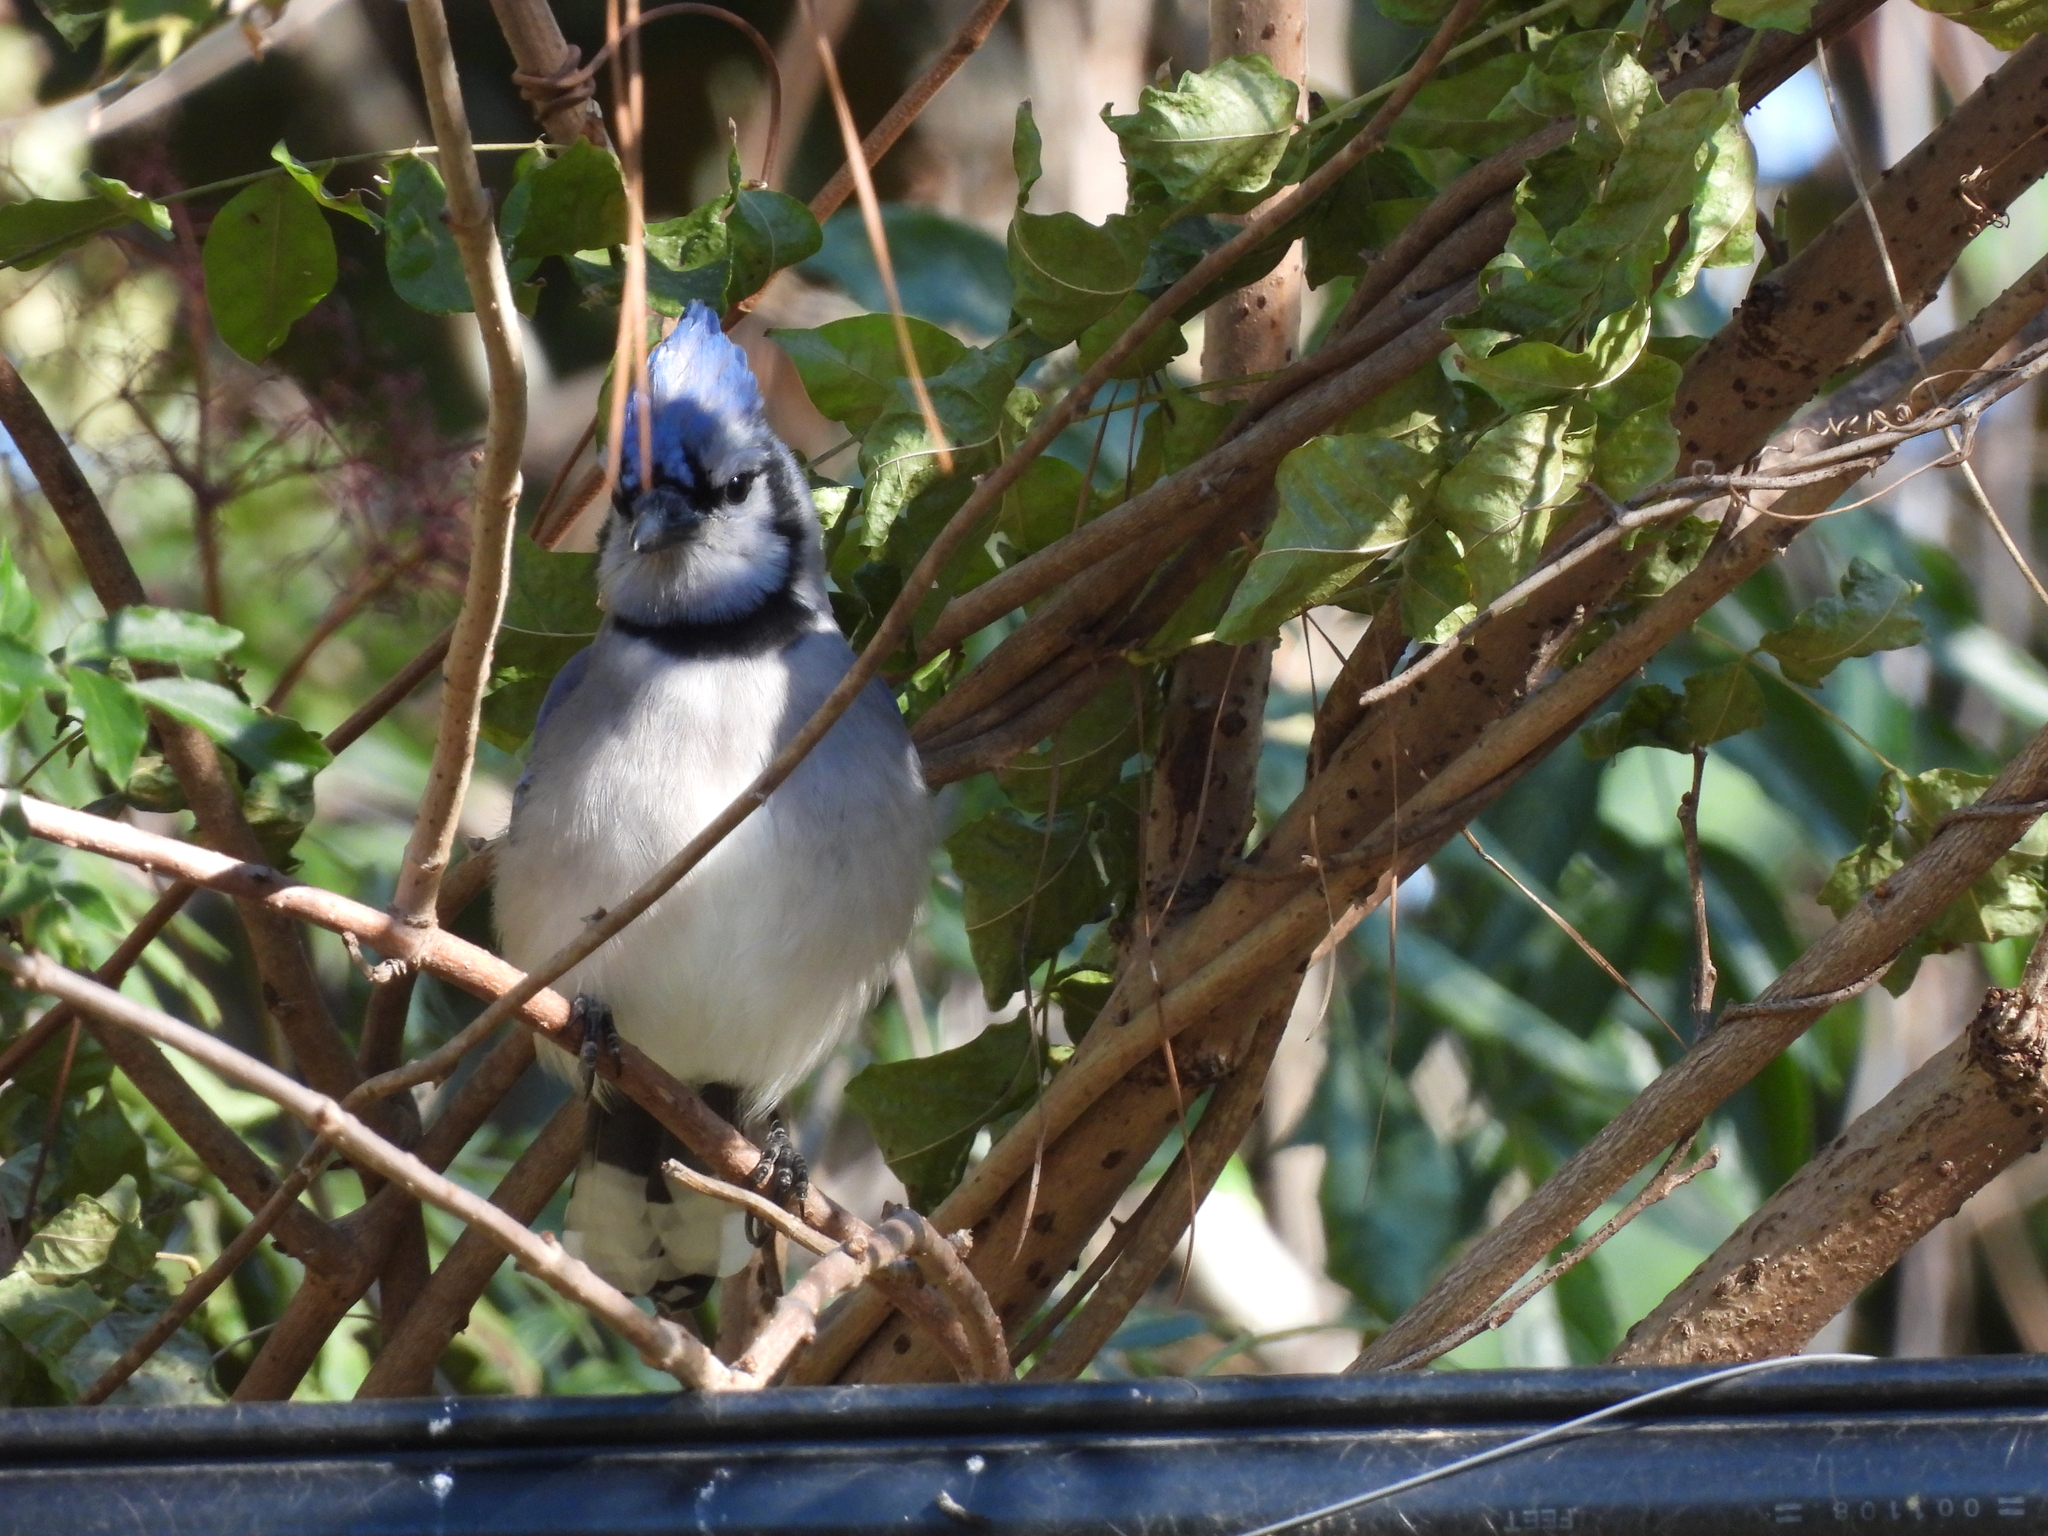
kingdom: Animalia
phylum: Chordata
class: Aves
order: Passeriformes
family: Corvidae
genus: Cyanocitta
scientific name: Cyanocitta cristata
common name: Blue jay
